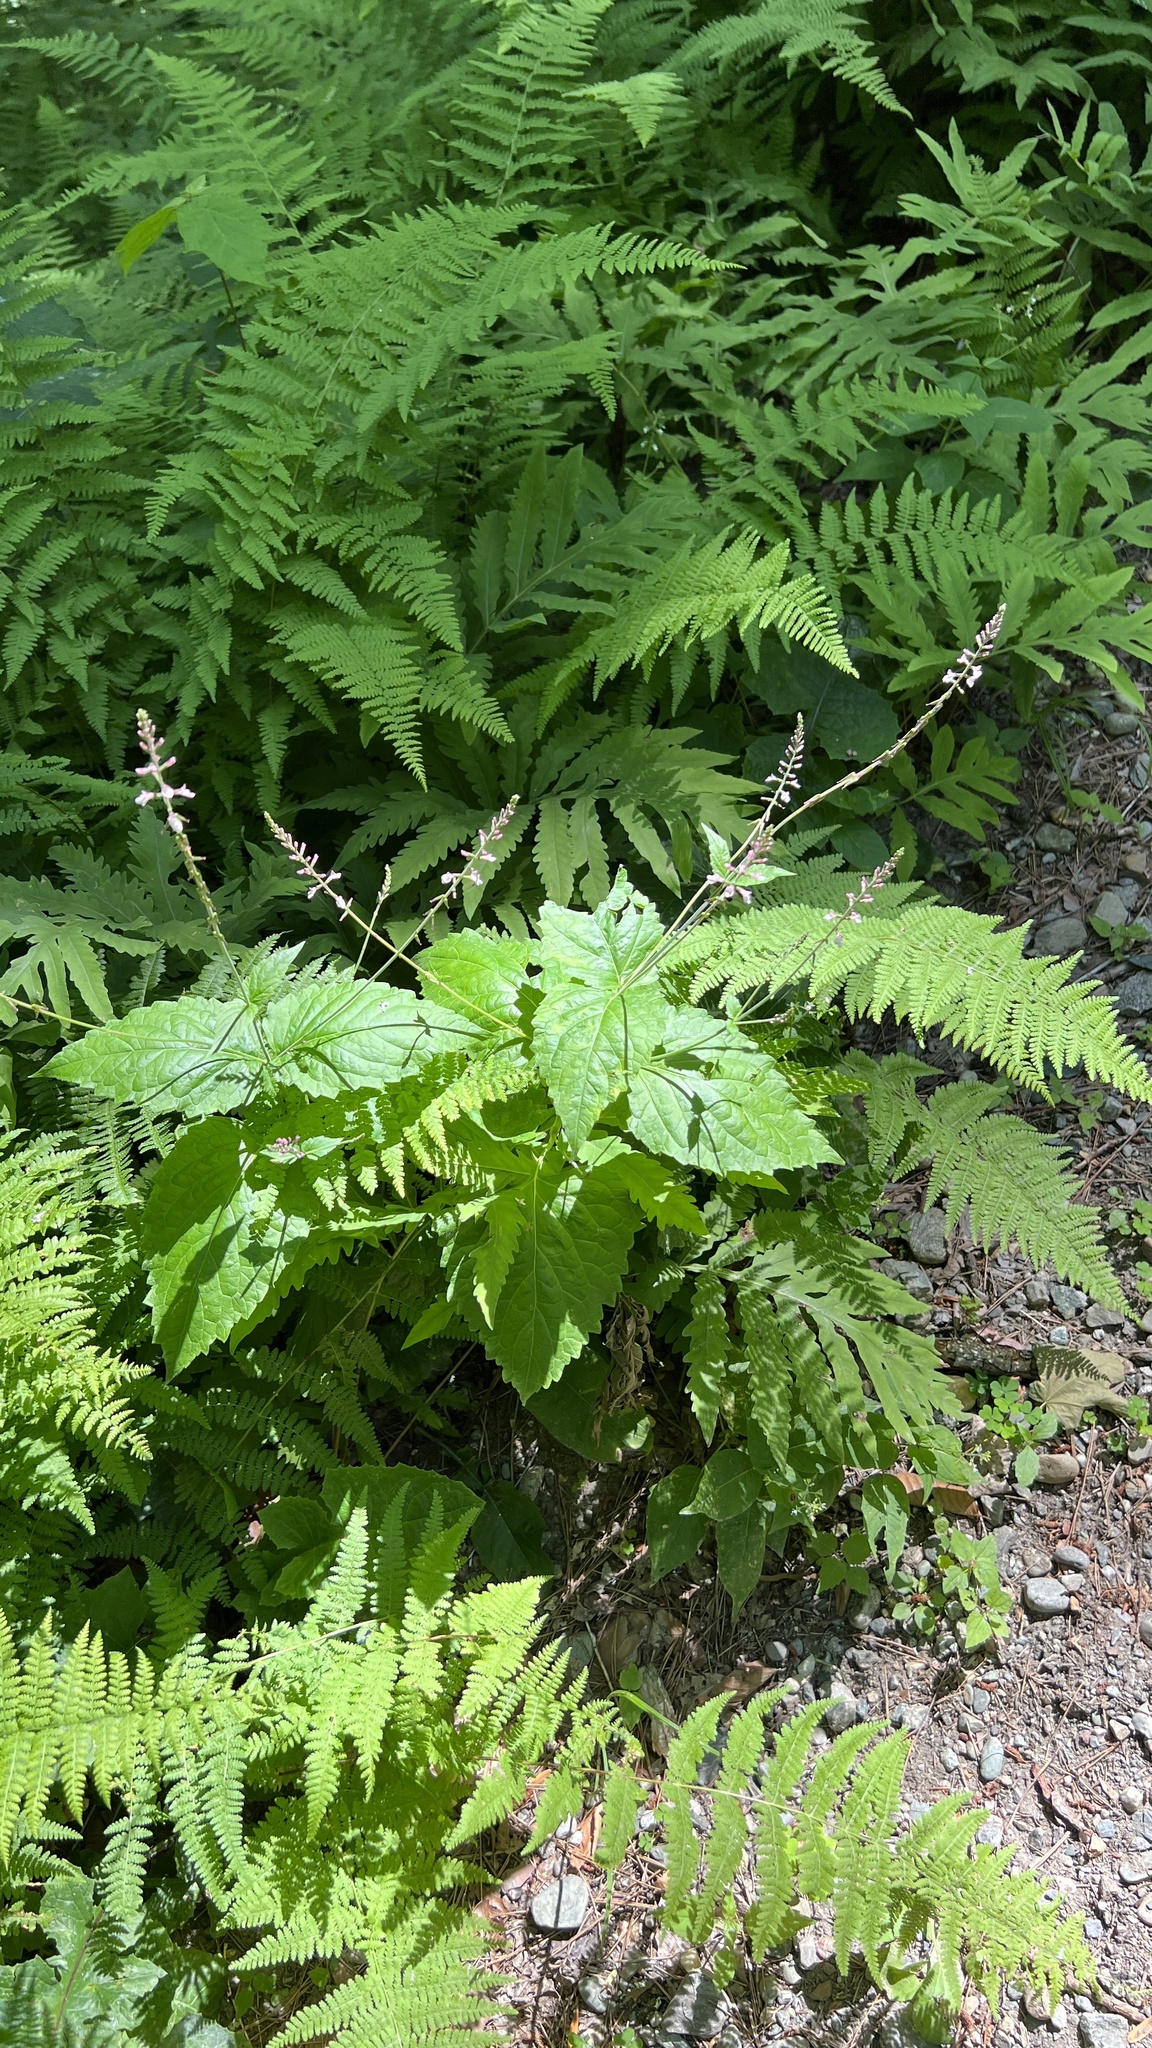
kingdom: Plantae
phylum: Tracheophyta
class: Magnoliopsida
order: Lamiales
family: Phrymaceae
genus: Phryma
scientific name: Phryma leptostachya
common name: American lopseed
